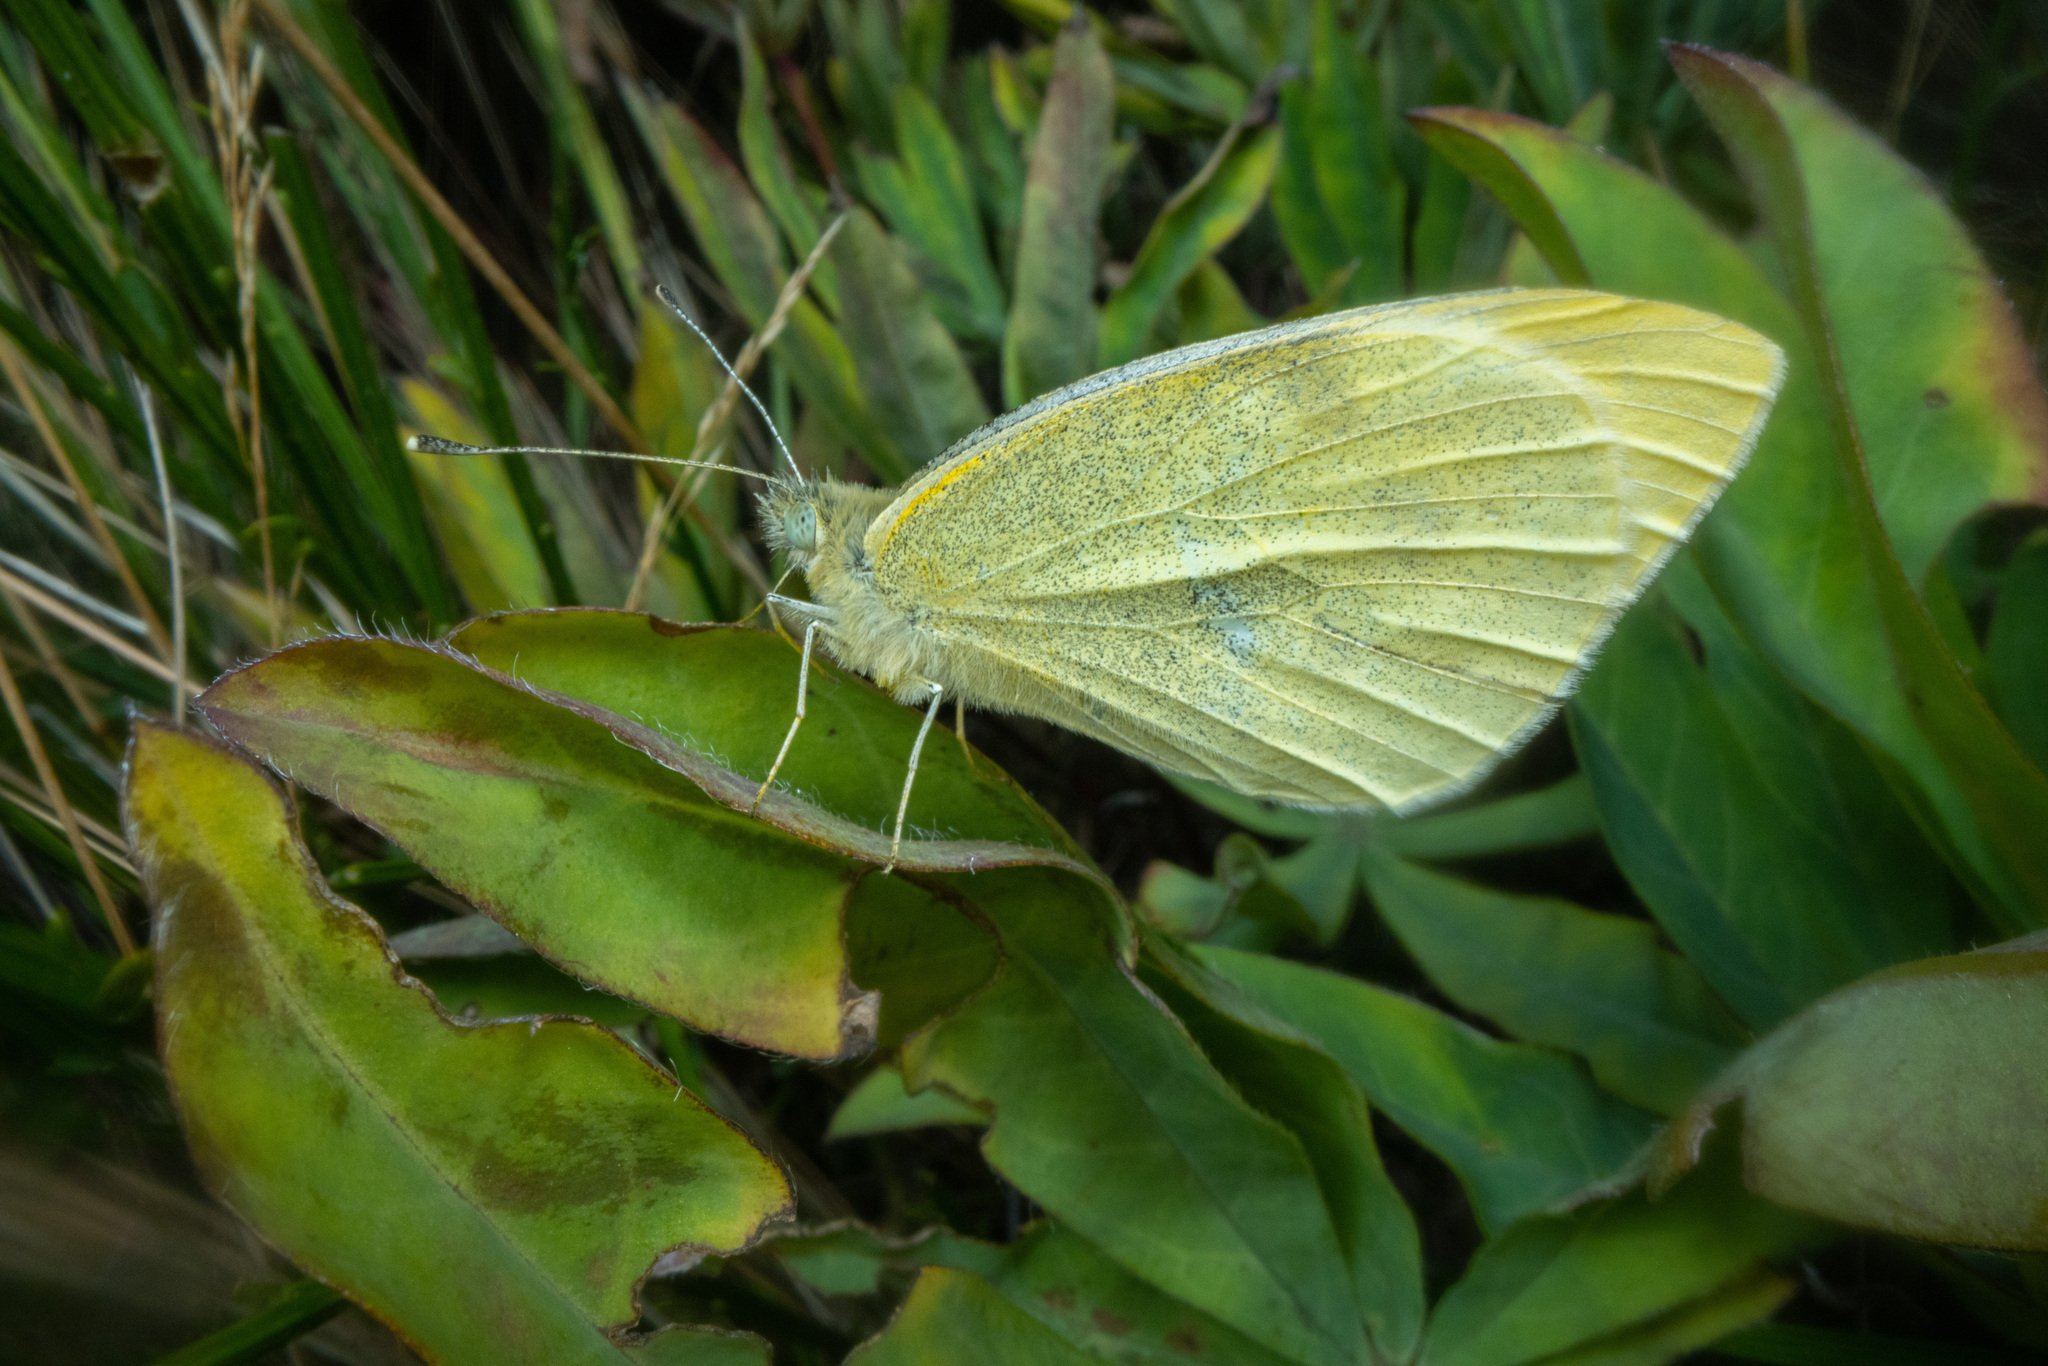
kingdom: Animalia
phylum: Arthropoda
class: Insecta
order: Lepidoptera
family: Pieridae
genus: Pieris
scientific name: Pieris rapae
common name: Small white
